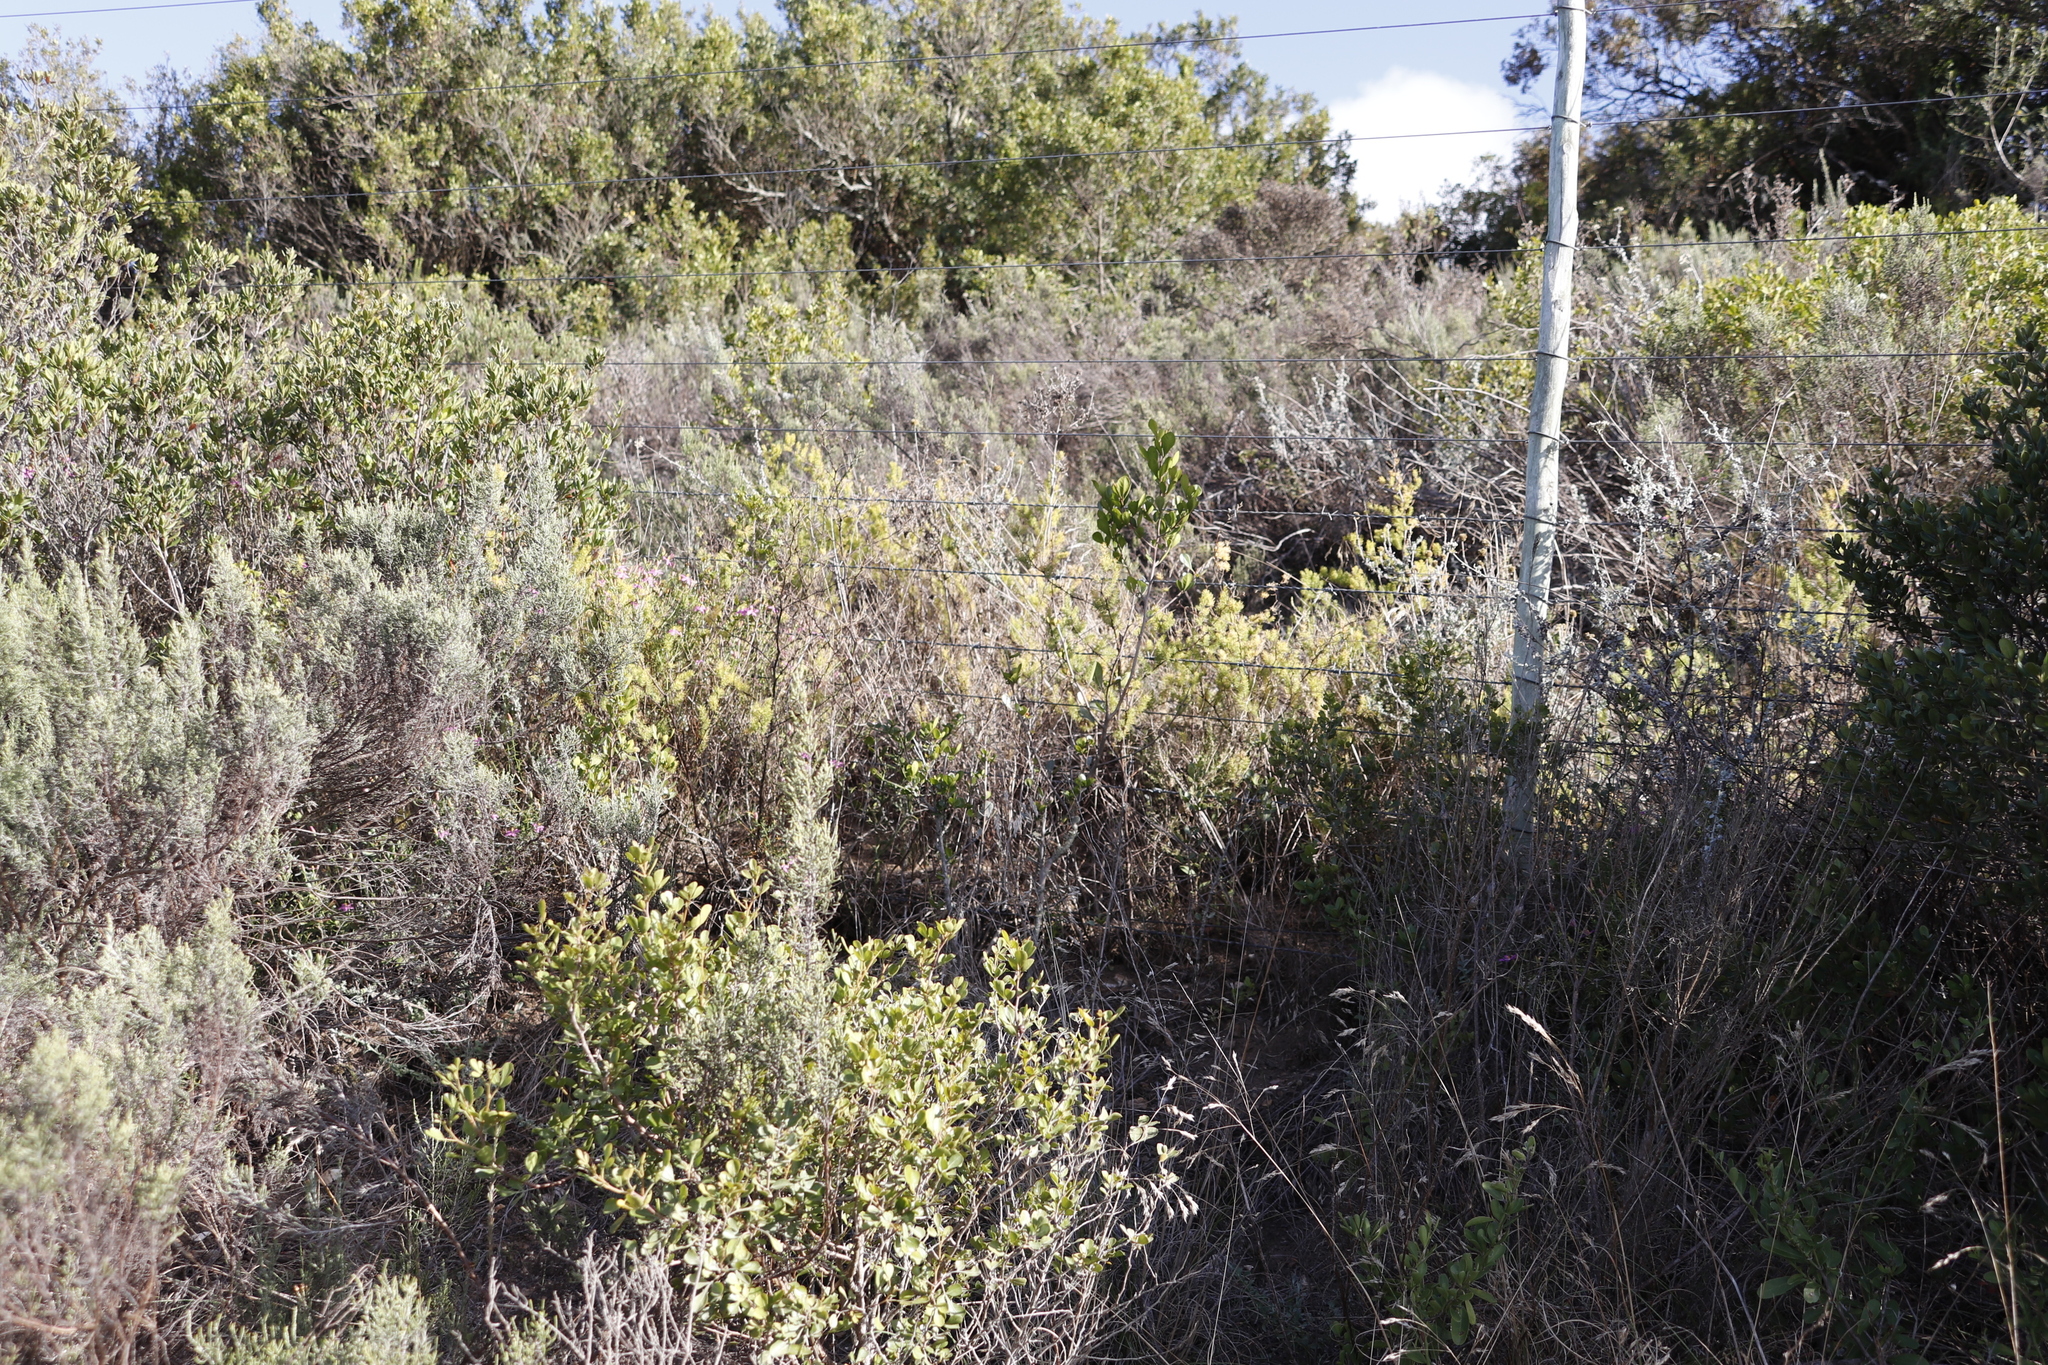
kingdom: Plantae
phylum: Tracheophyta
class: Liliopsida
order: Asparagales
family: Asparagaceae
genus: Asparagus
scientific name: Asparagus rubicundus
